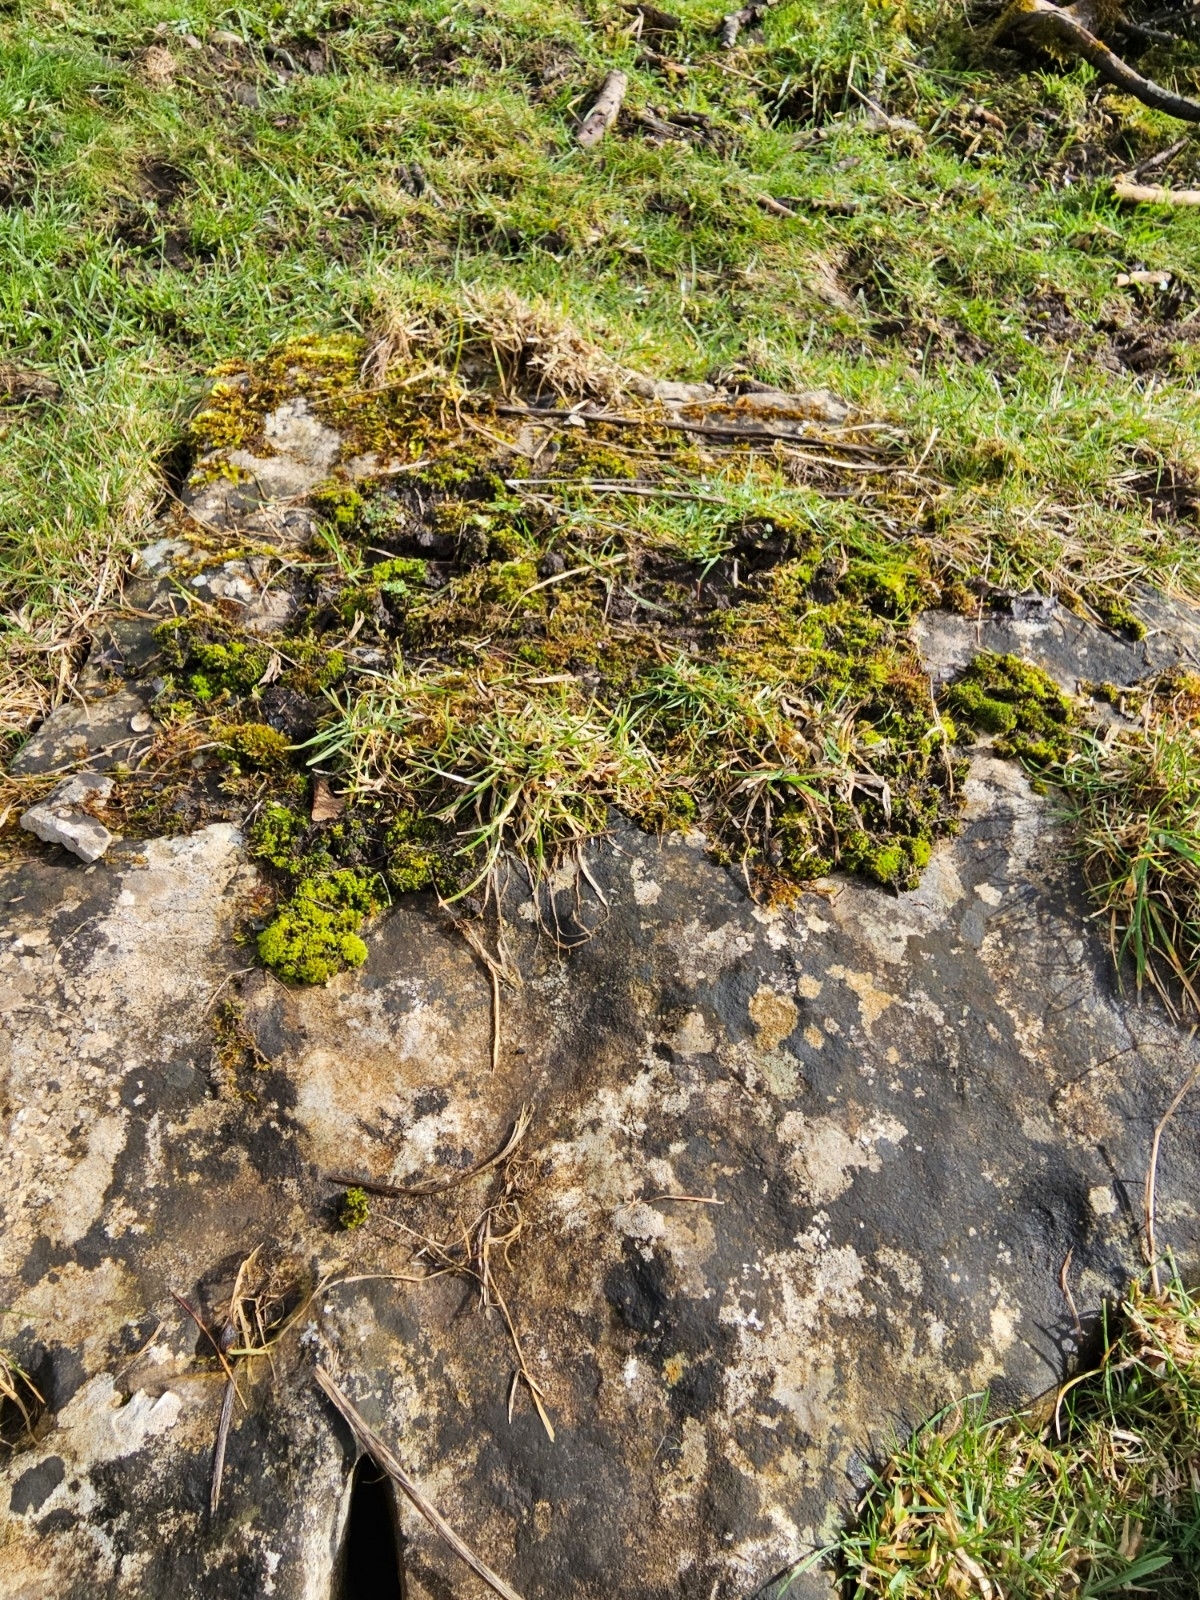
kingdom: Plantae
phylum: Bryophyta
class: Bryopsida
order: Dicranales
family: Ditrichaceae
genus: Ceratodon
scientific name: Ceratodon purpureus
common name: Redshank
